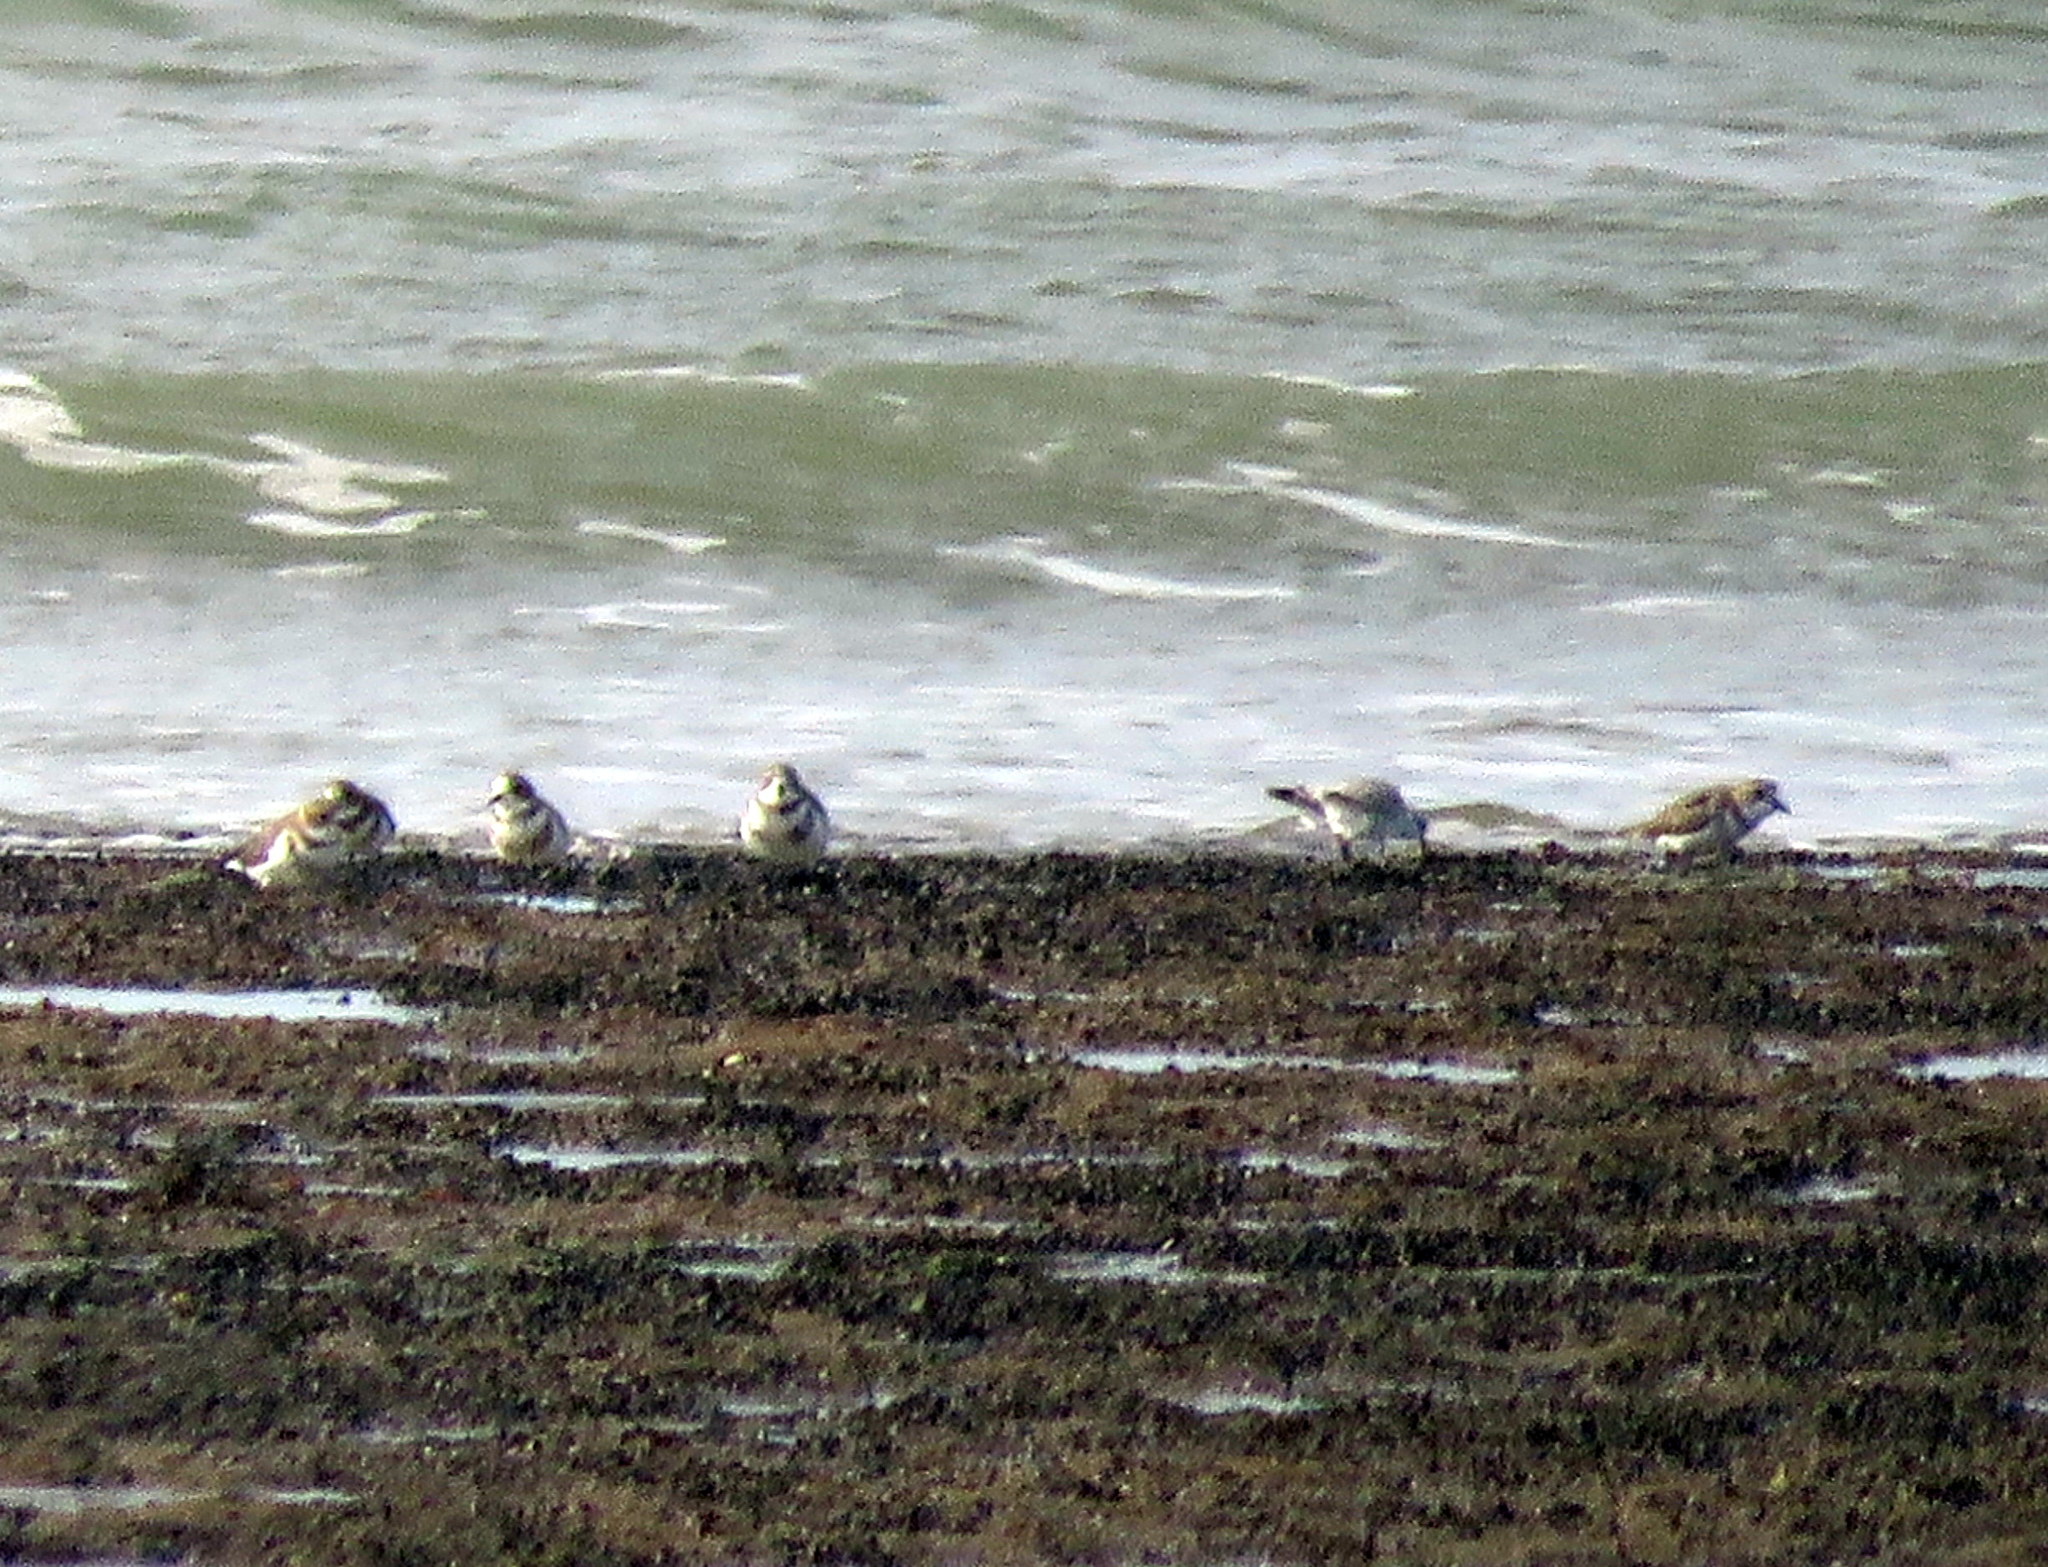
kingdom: Animalia
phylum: Chordata
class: Aves
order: Charadriiformes
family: Charadriidae
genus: Anarhynchus
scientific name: Anarhynchus
